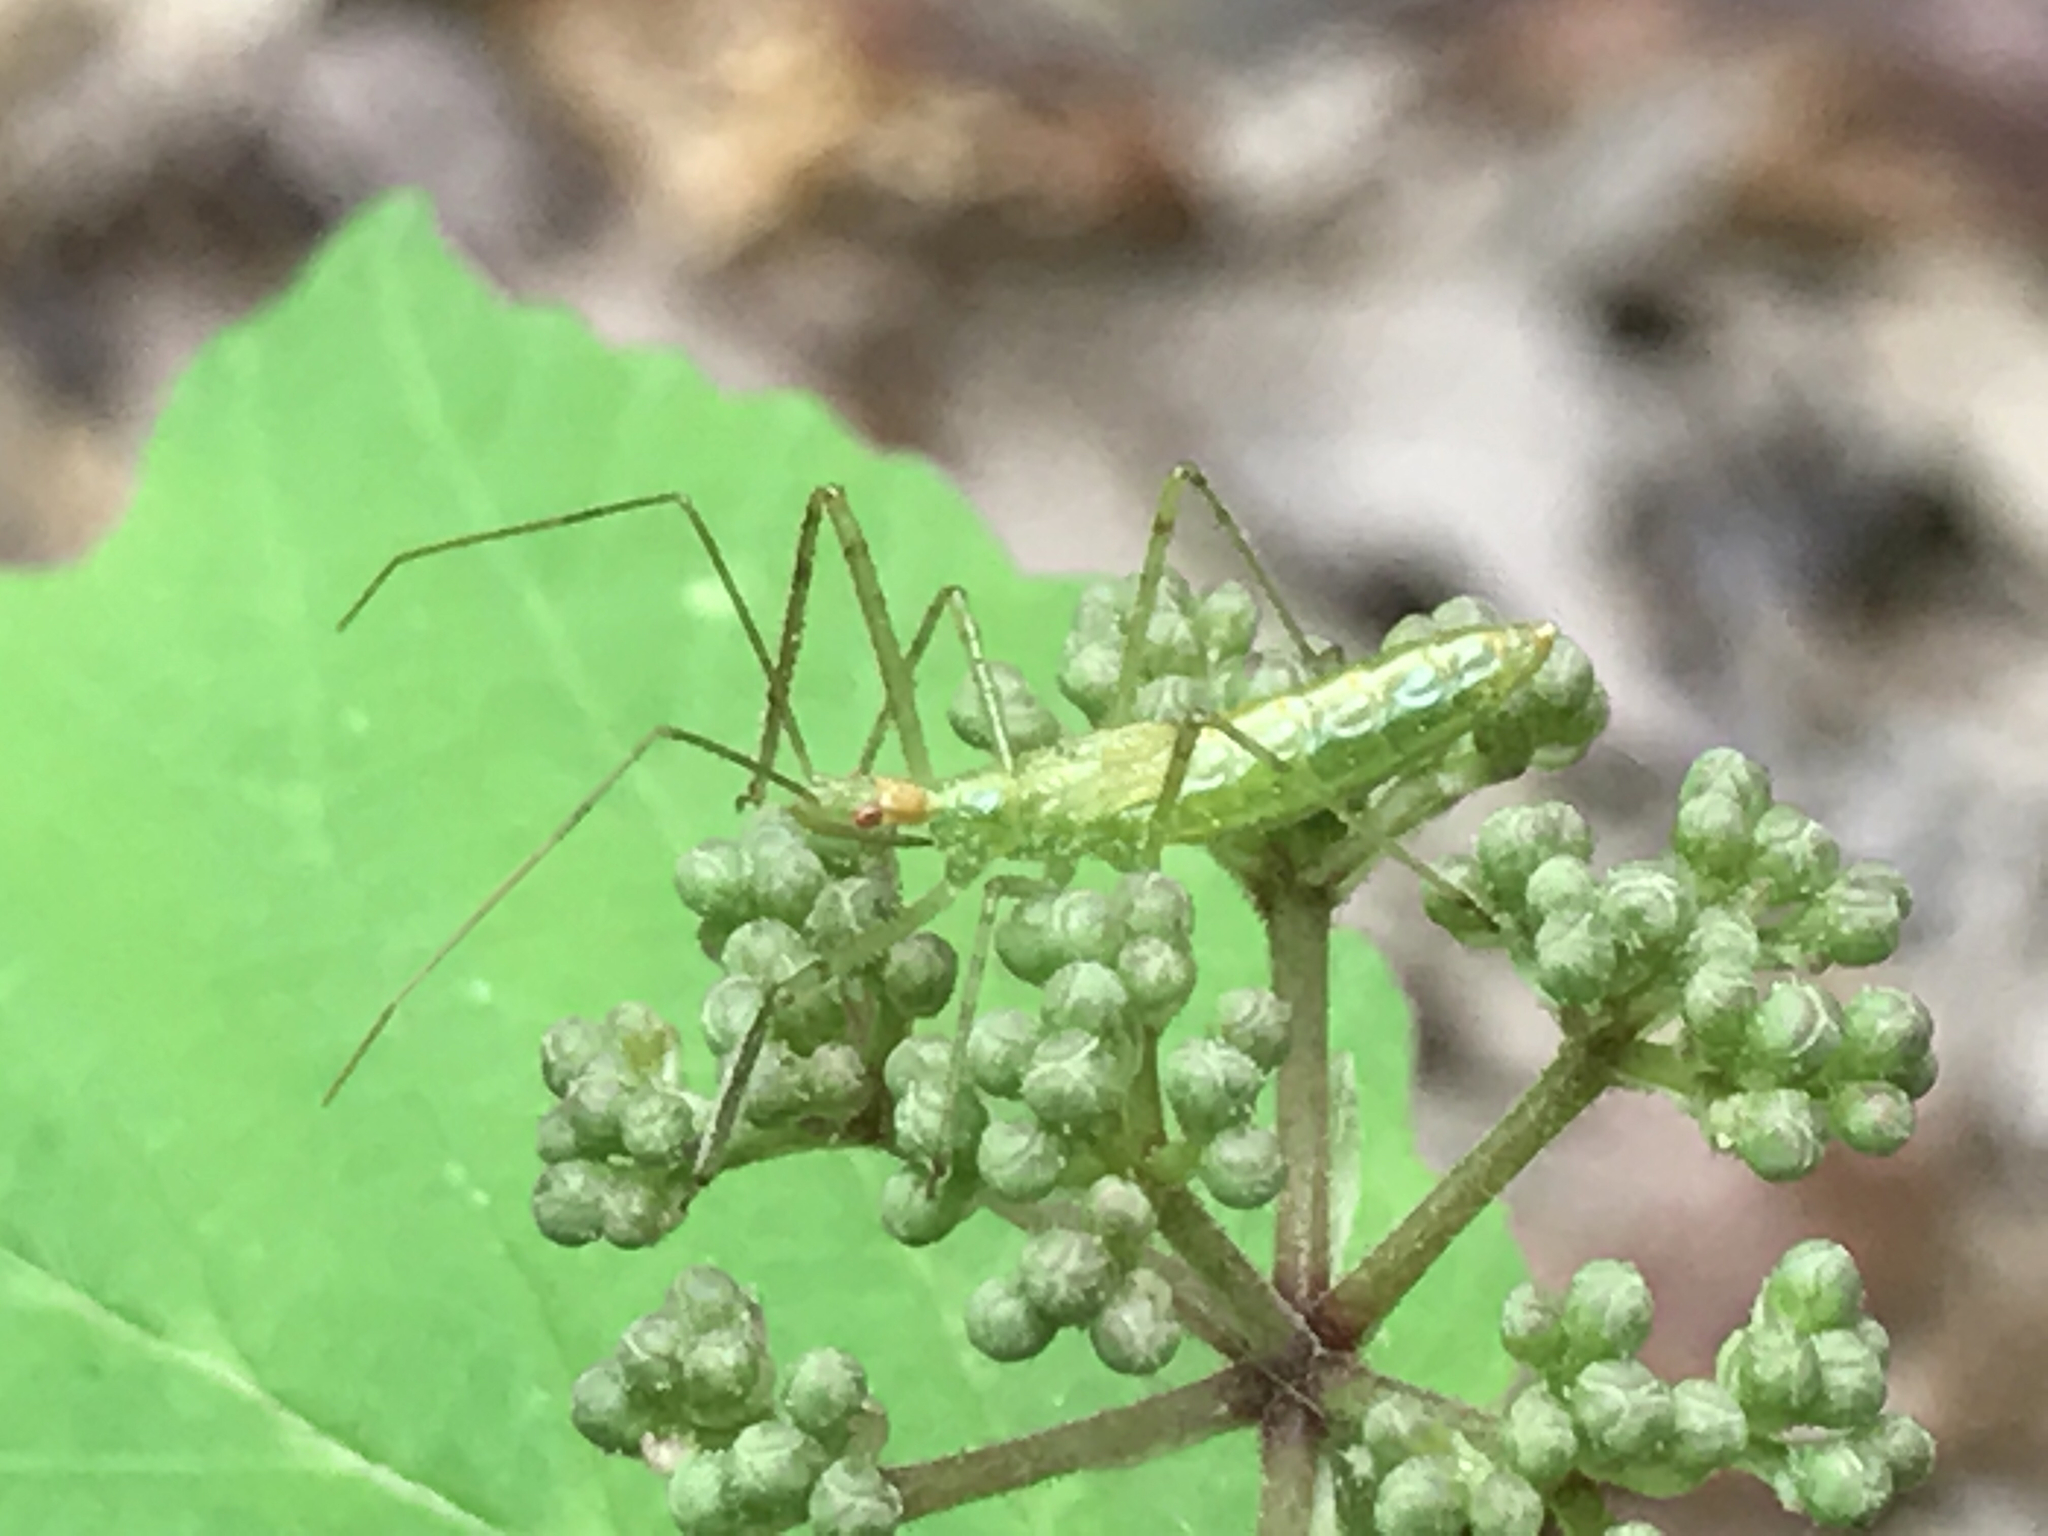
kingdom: Animalia
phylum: Arthropoda
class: Insecta
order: Hemiptera
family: Reduviidae
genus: Zelus
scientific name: Zelus luridus
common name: Pale green assassin bug
